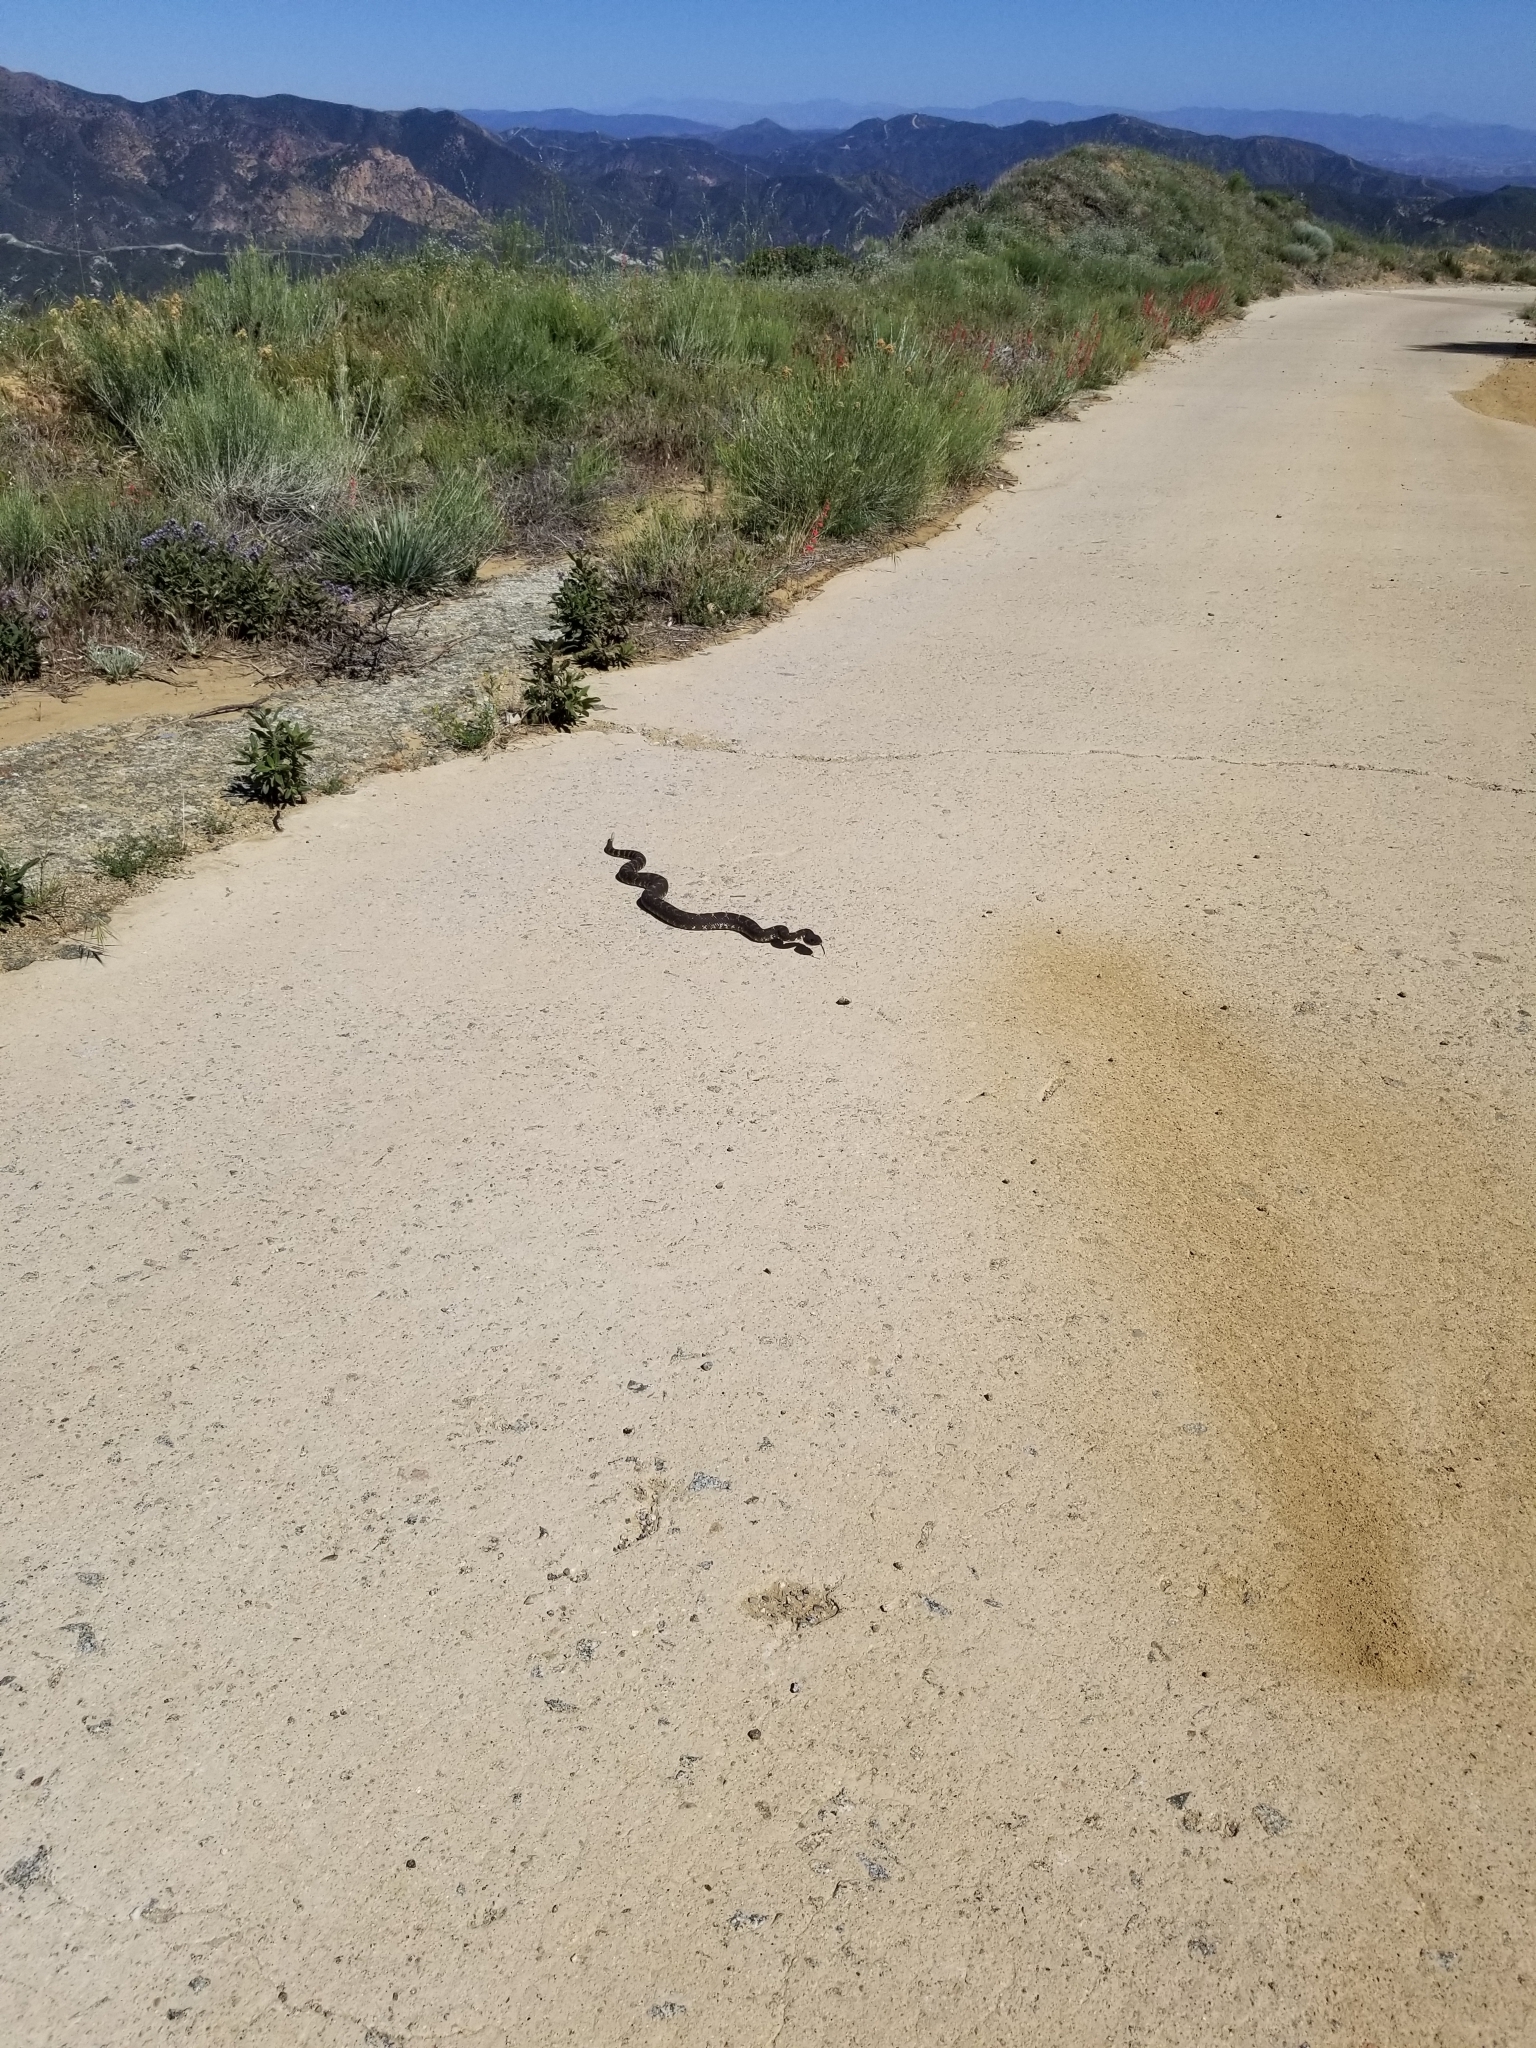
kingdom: Animalia
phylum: Chordata
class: Squamata
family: Viperidae
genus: Crotalus
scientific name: Crotalus oreganus
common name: Abyssus
